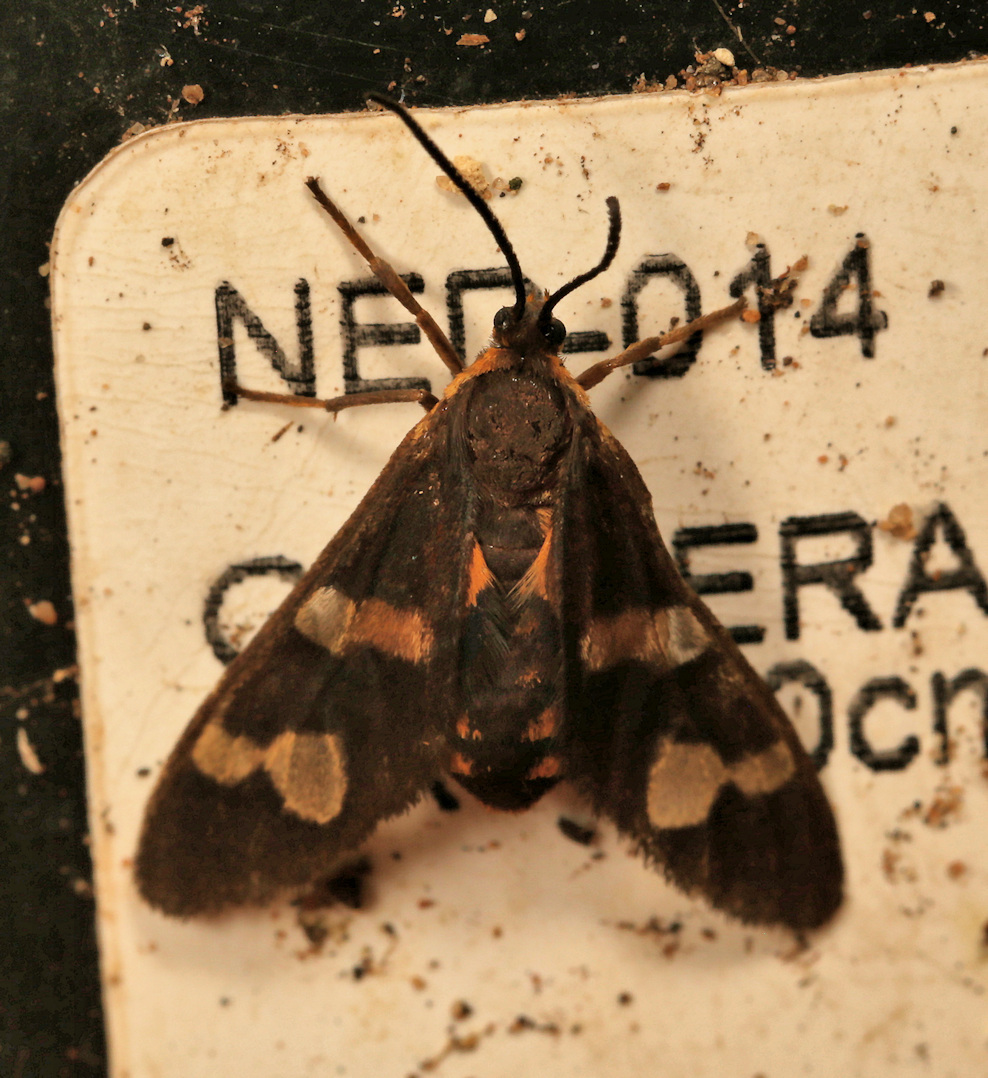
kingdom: Animalia
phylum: Arthropoda
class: Insecta
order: Lepidoptera
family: Erebidae
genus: Pseudonaclia
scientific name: Pseudonaclia puella
